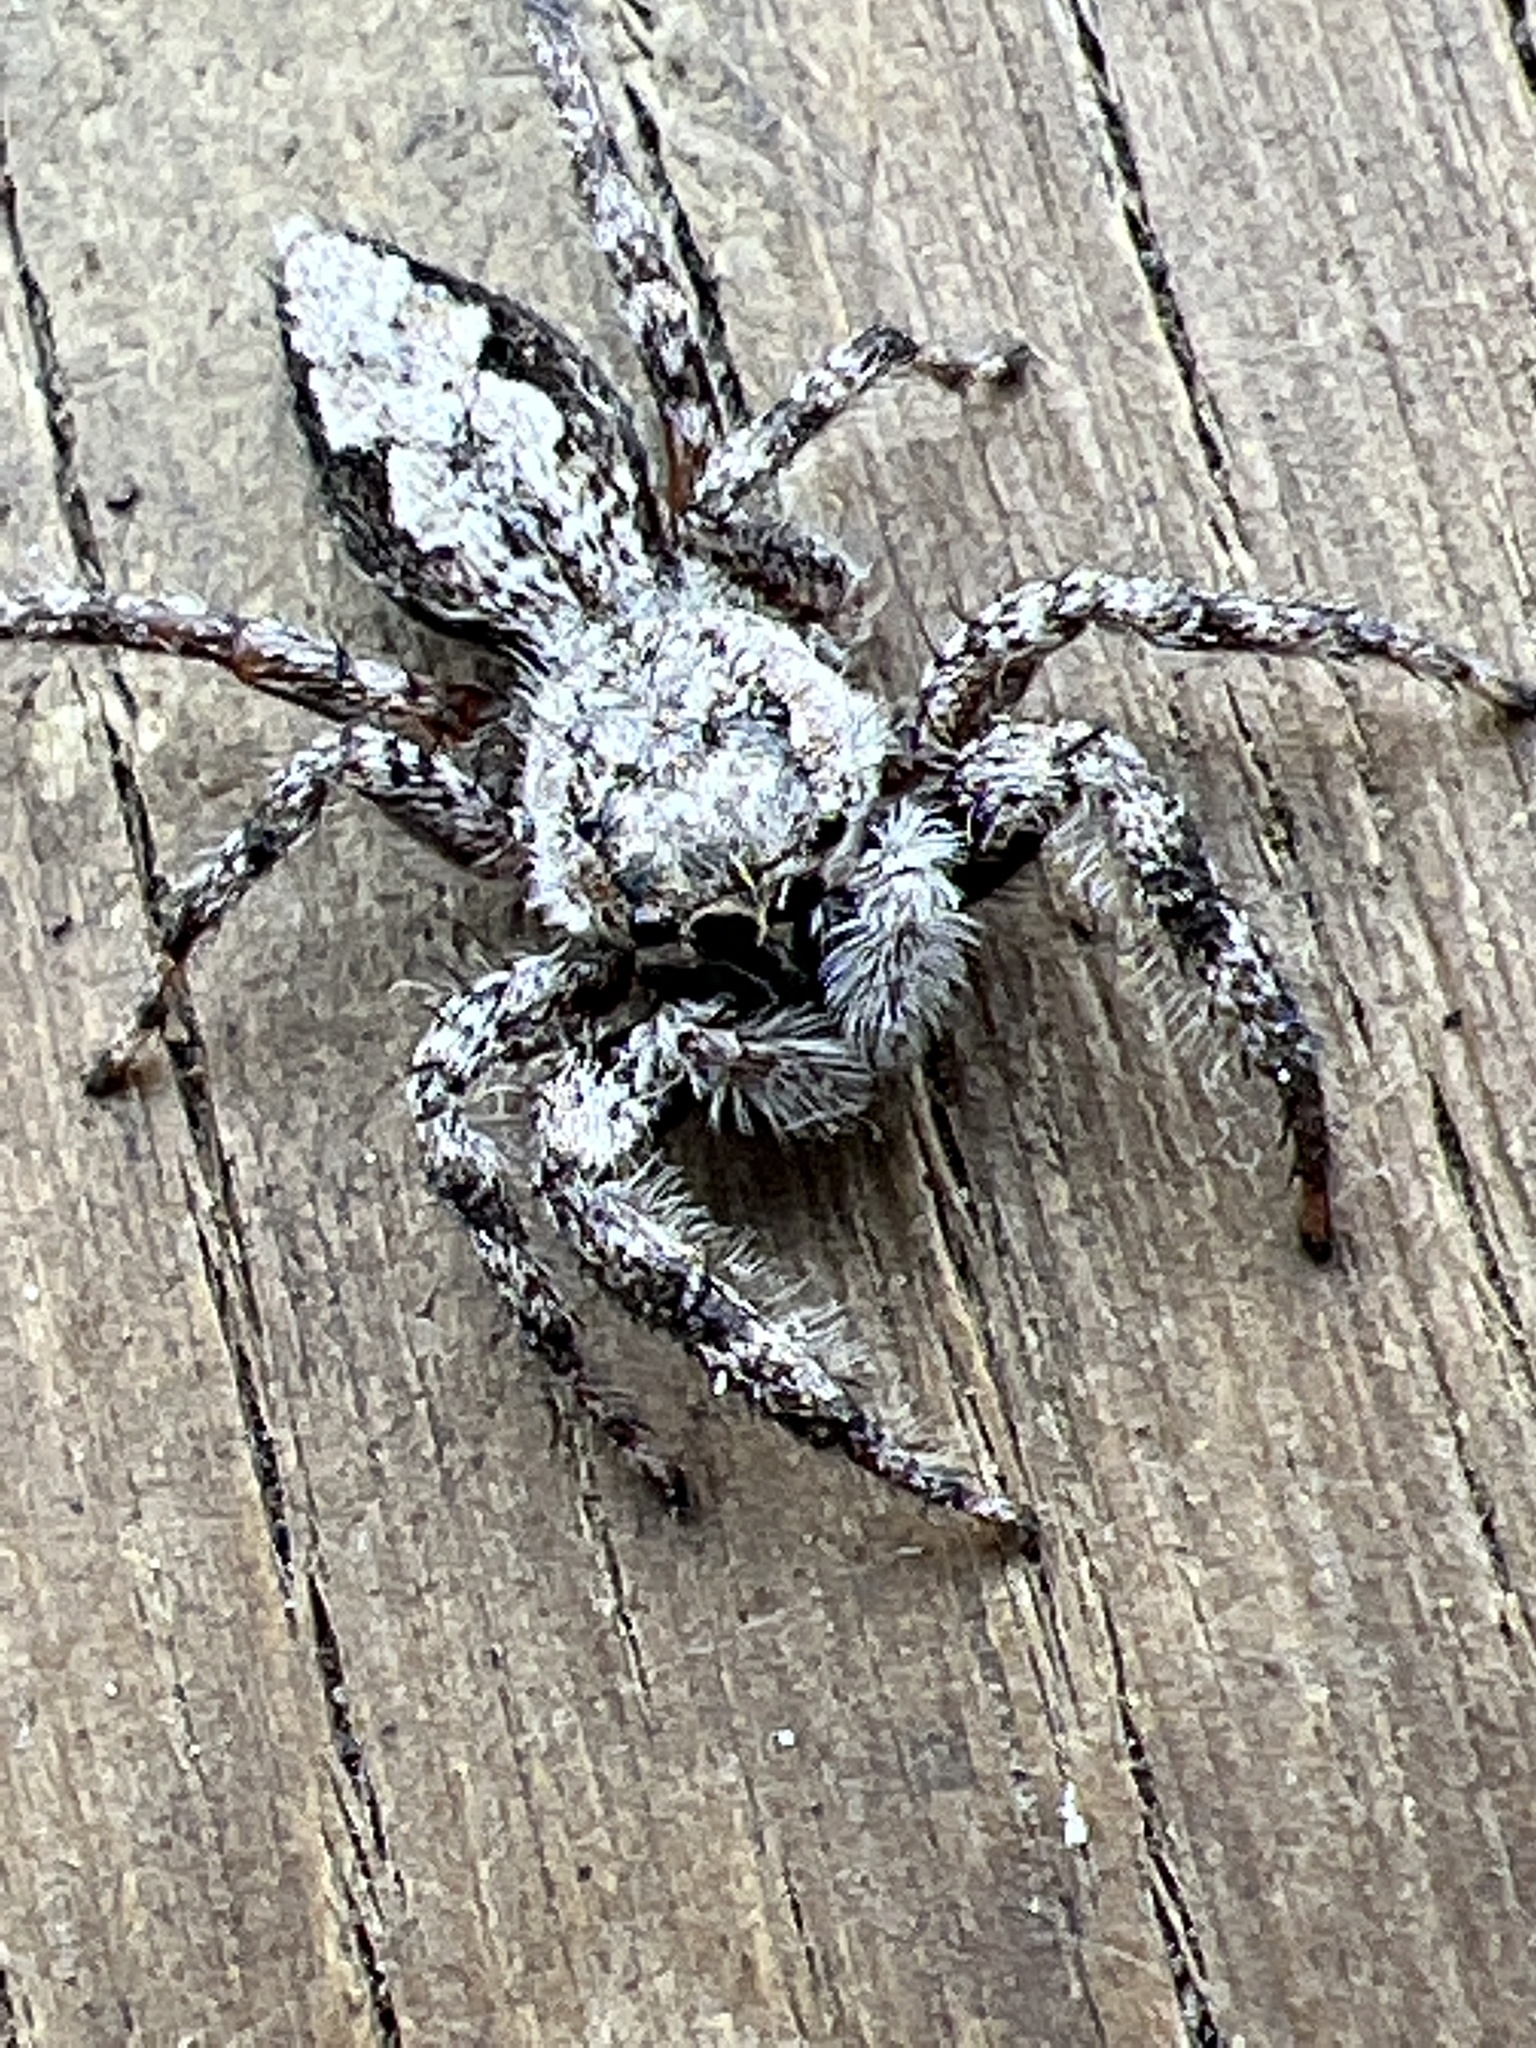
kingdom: Animalia
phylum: Arthropoda
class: Arachnida
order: Araneae
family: Salticidae
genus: Platycryptus
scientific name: Platycryptus undatus
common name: Tan jumping spider
